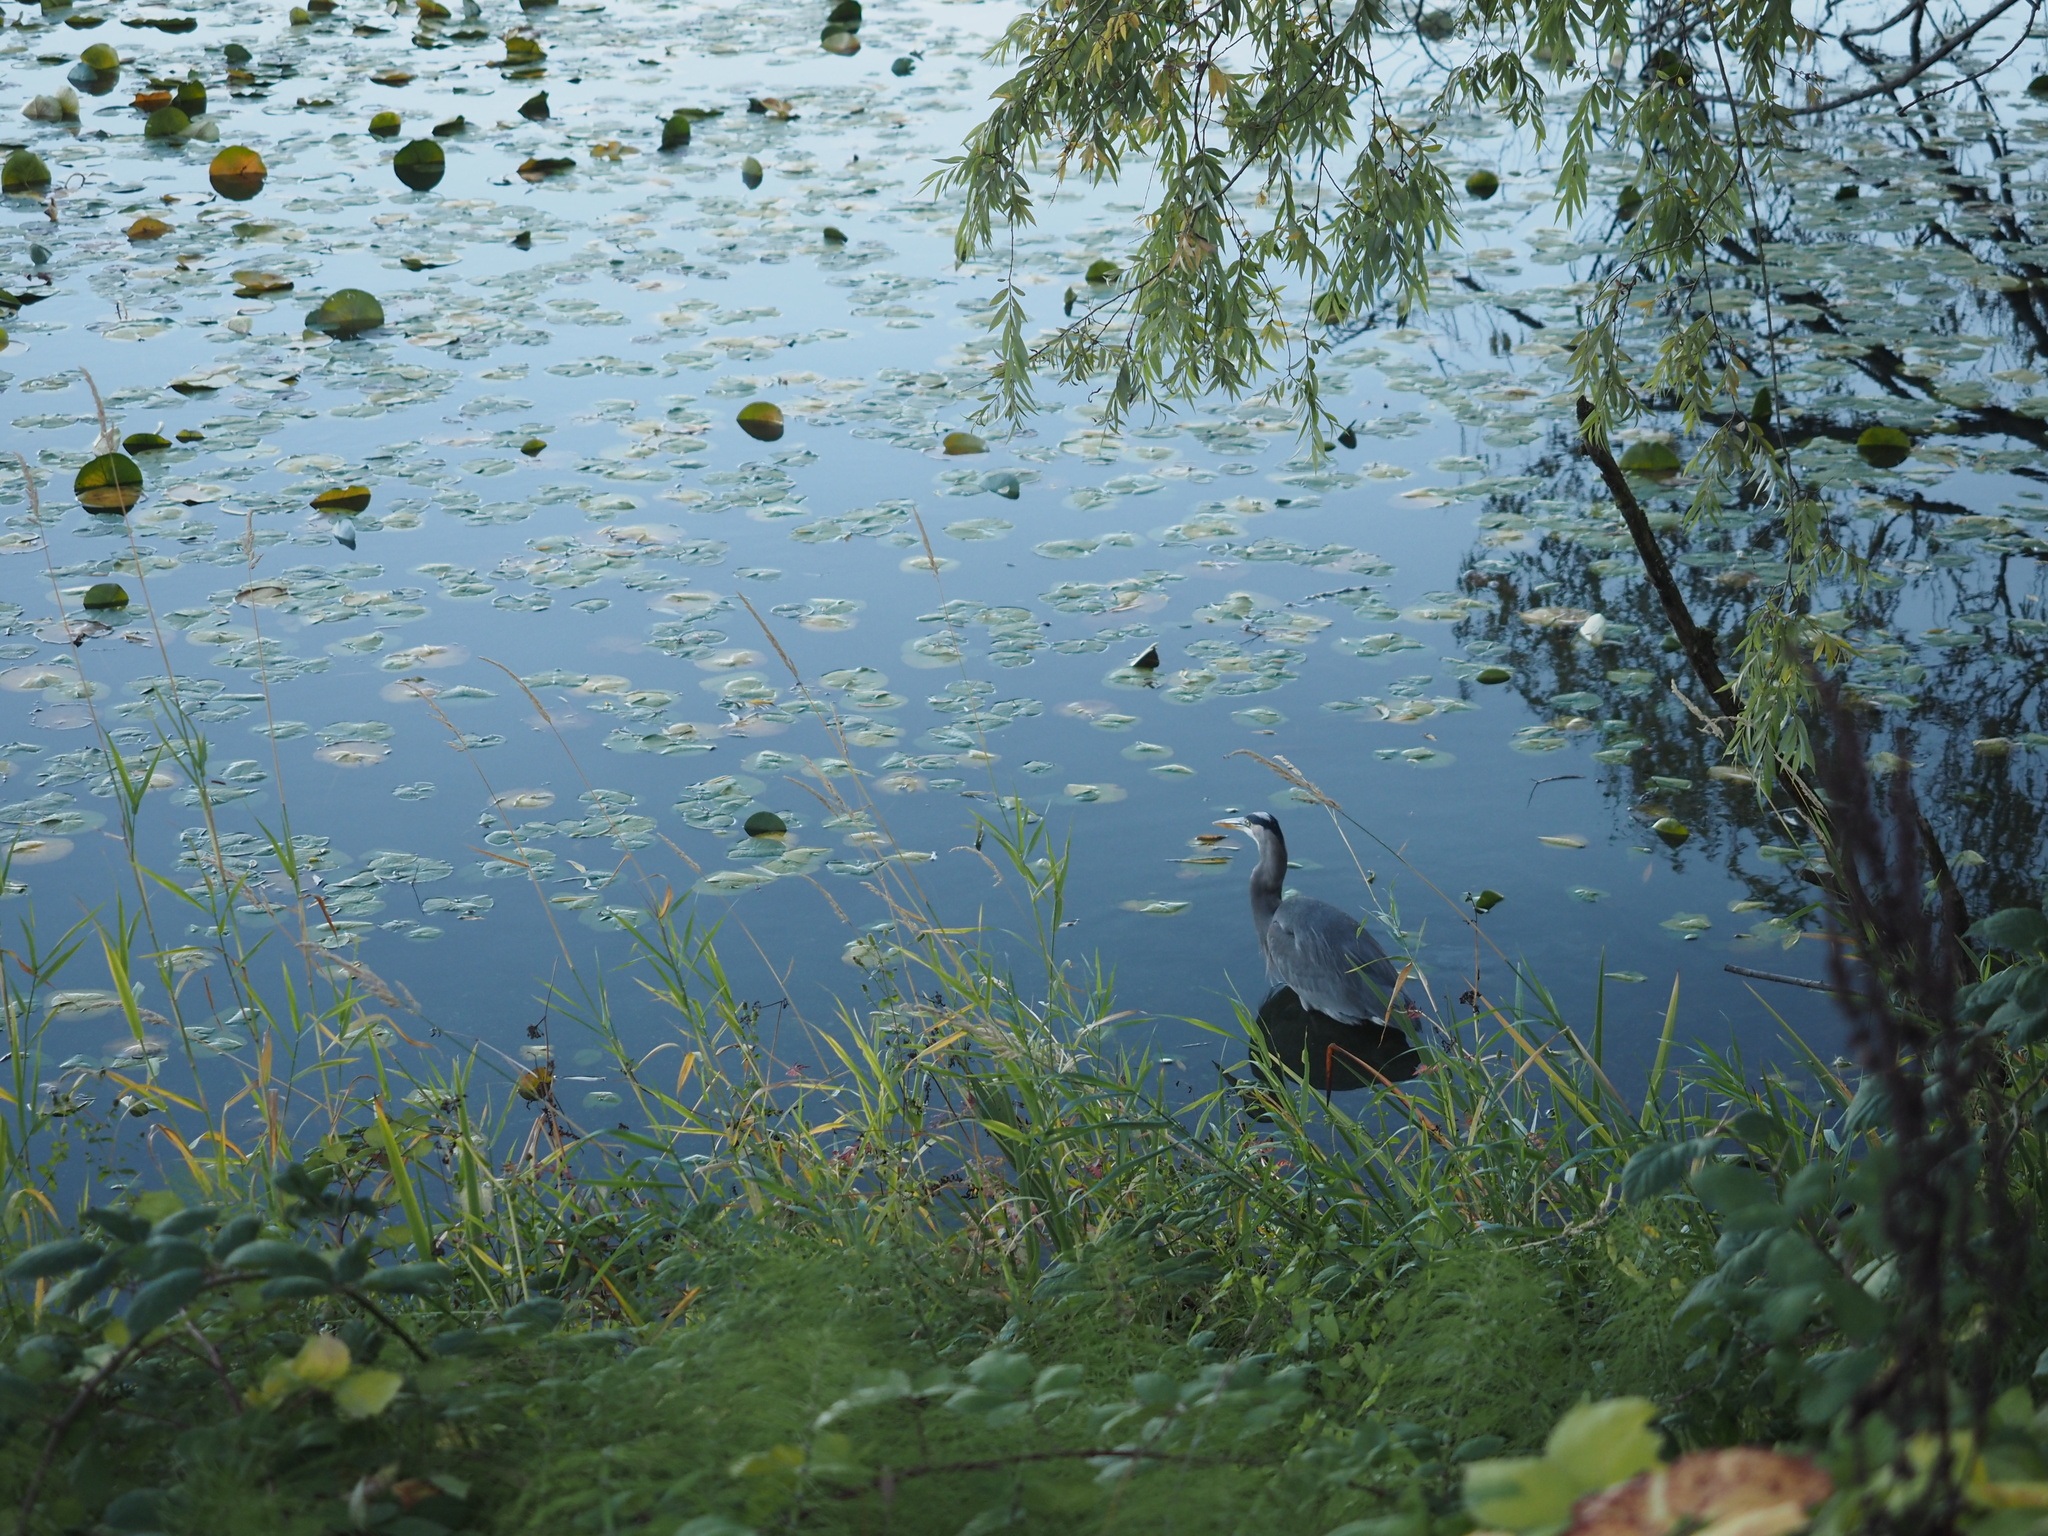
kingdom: Animalia
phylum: Chordata
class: Aves
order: Pelecaniformes
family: Ardeidae
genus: Ardea
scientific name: Ardea herodias
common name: Great blue heron
